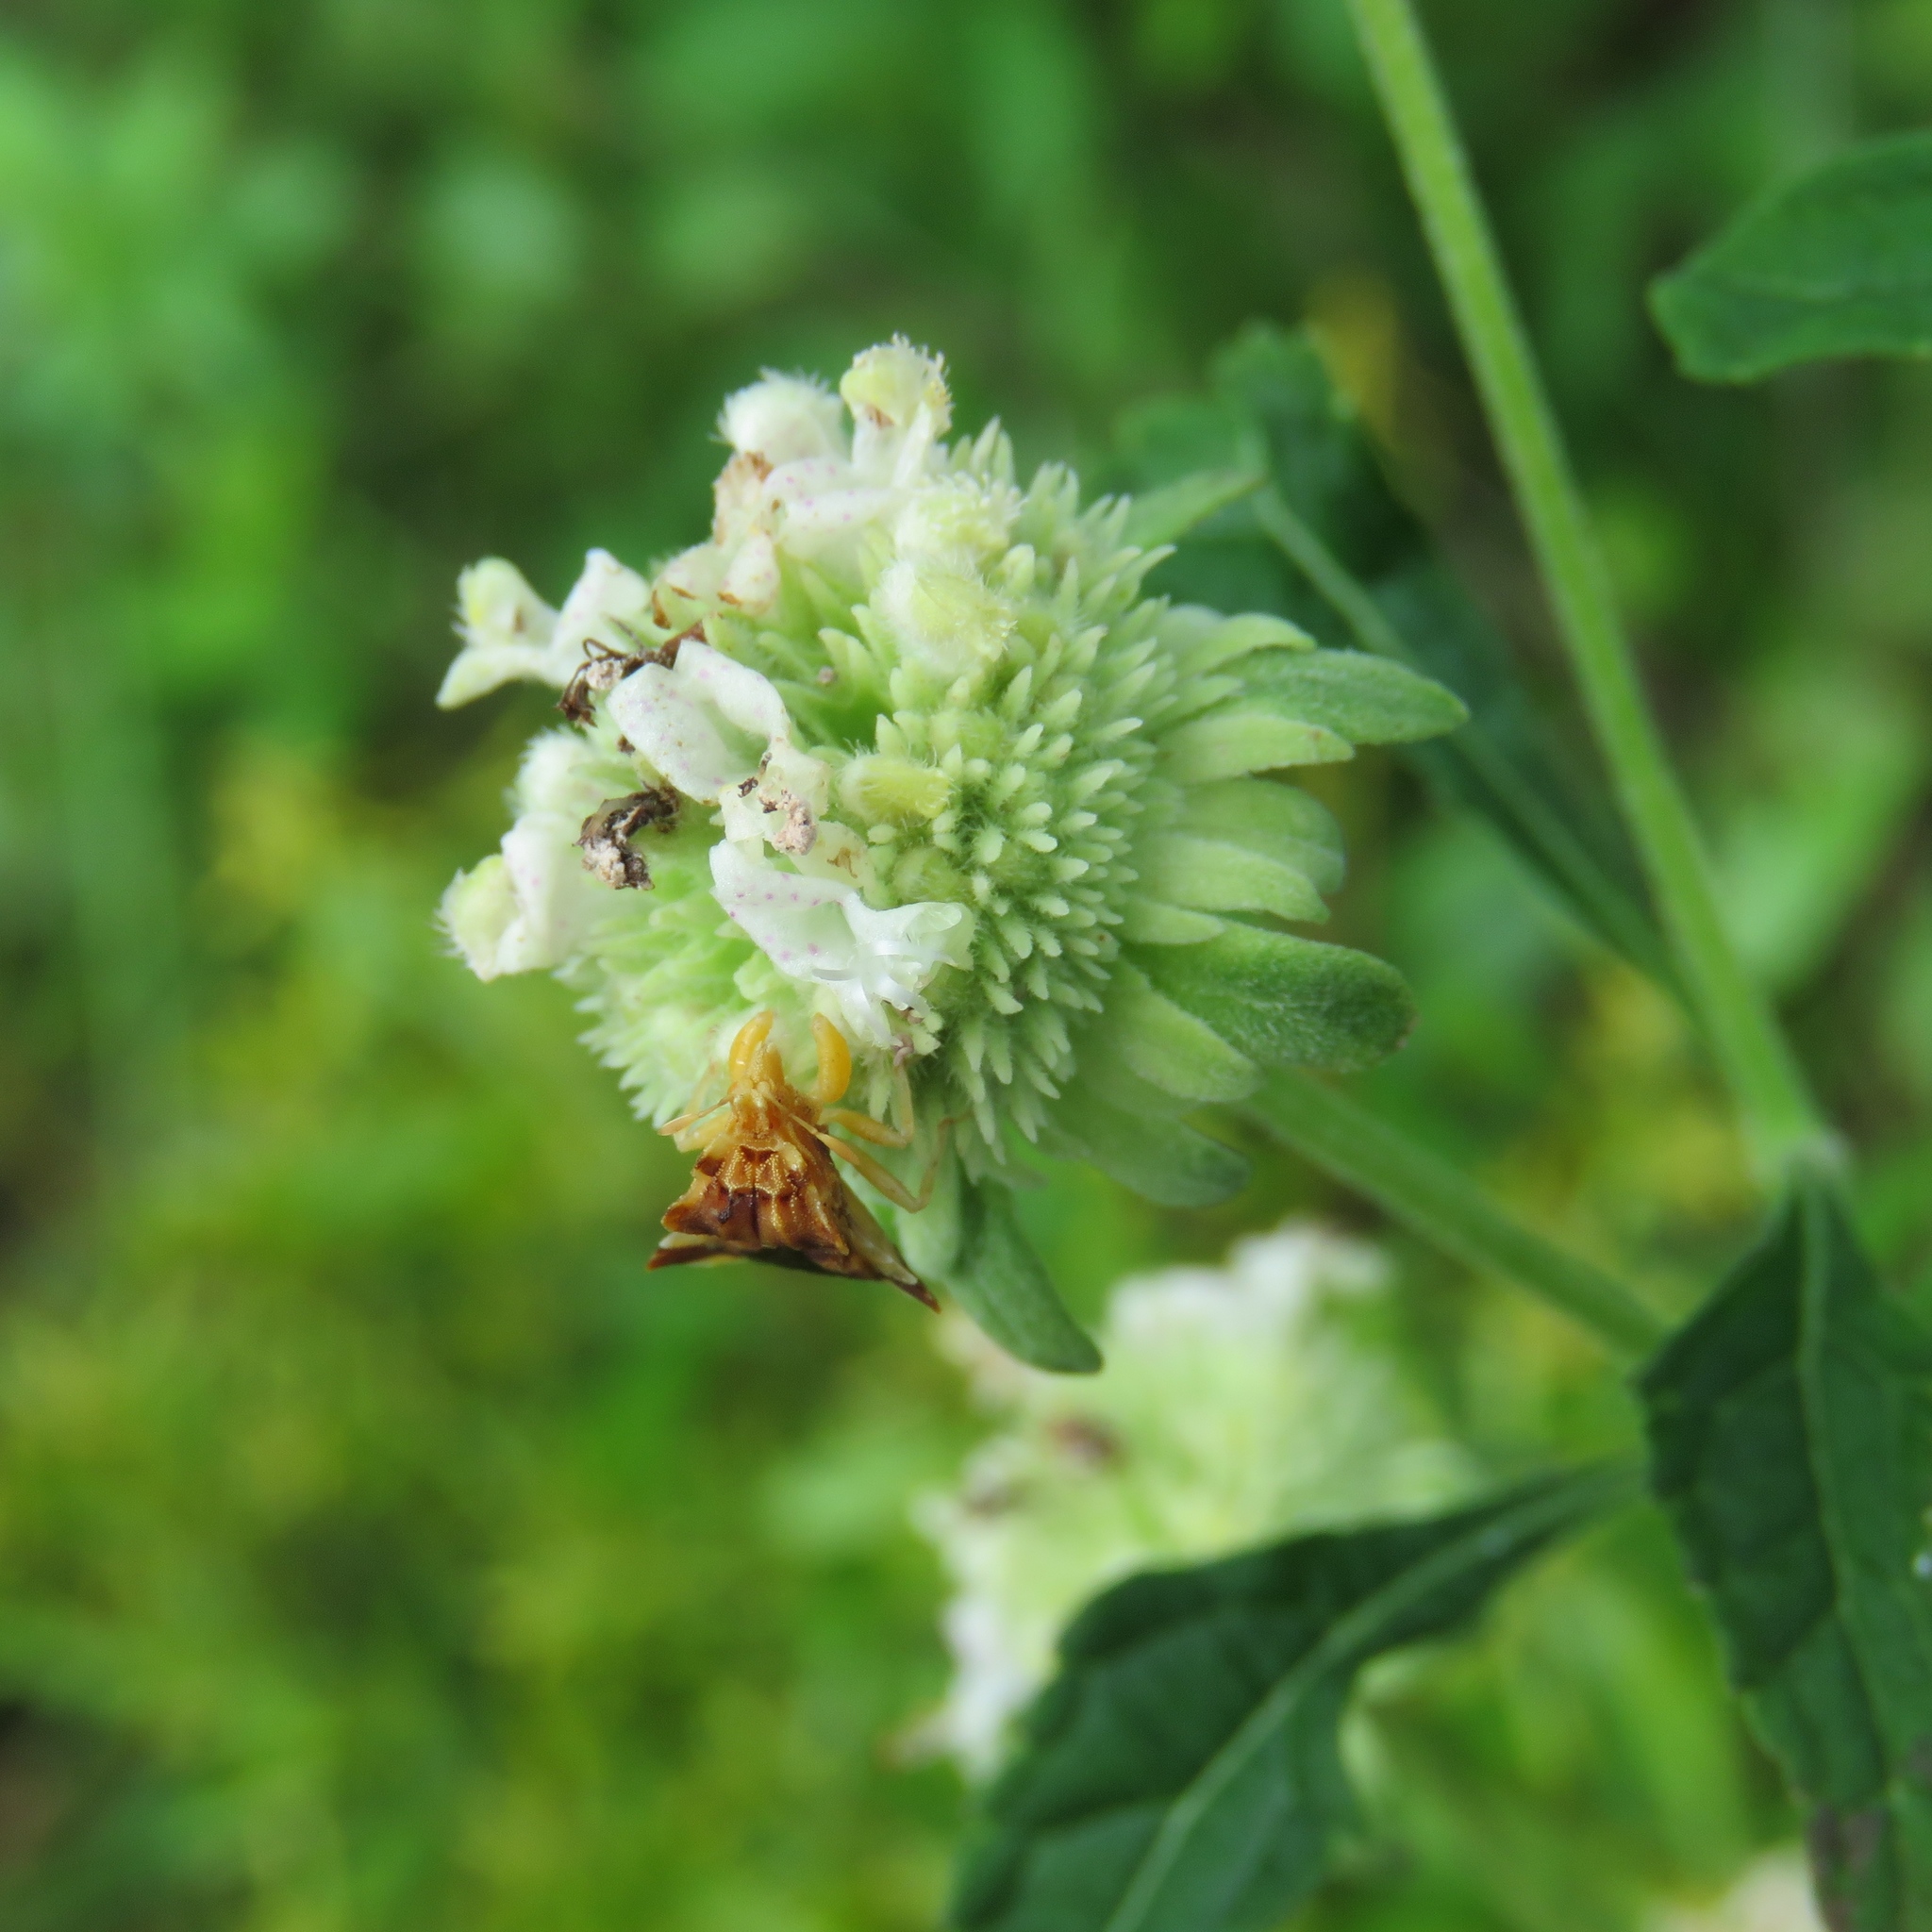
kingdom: Plantae
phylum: Tracheophyta
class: Magnoliopsida
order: Lamiales
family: Lamiaceae
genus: Hyptis
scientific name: Hyptis alata
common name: Cluster bush-mint
